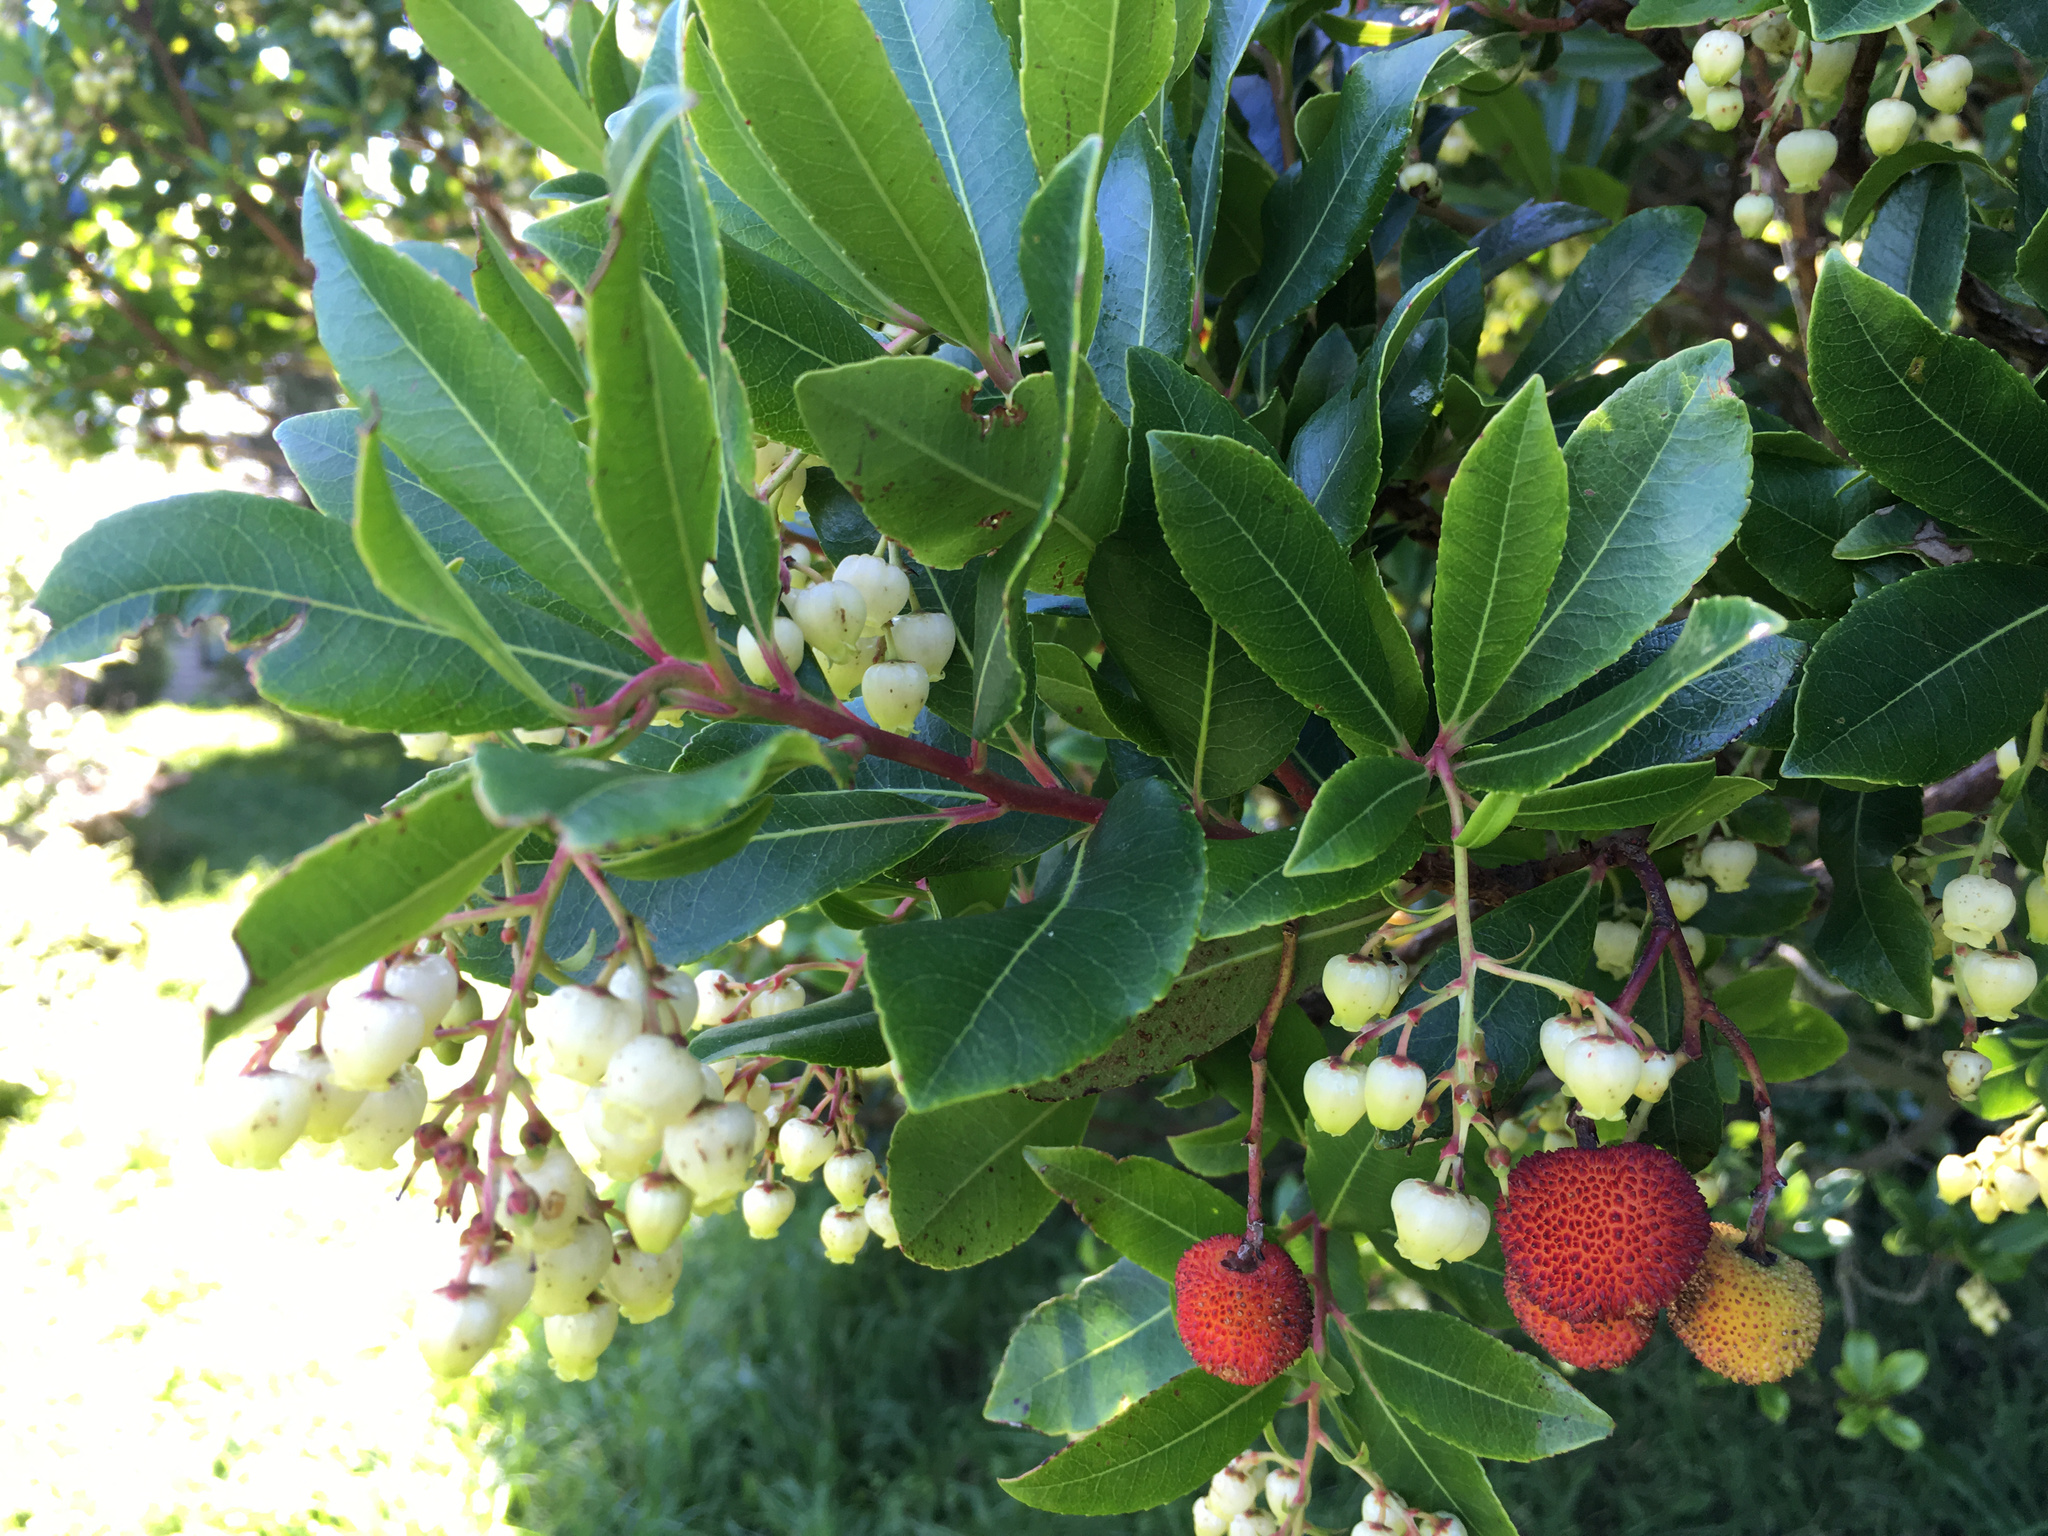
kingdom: Plantae
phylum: Tracheophyta
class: Magnoliopsida
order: Ericales
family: Ericaceae
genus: Arbutus
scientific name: Arbutus unedo
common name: Strawberry-tree
